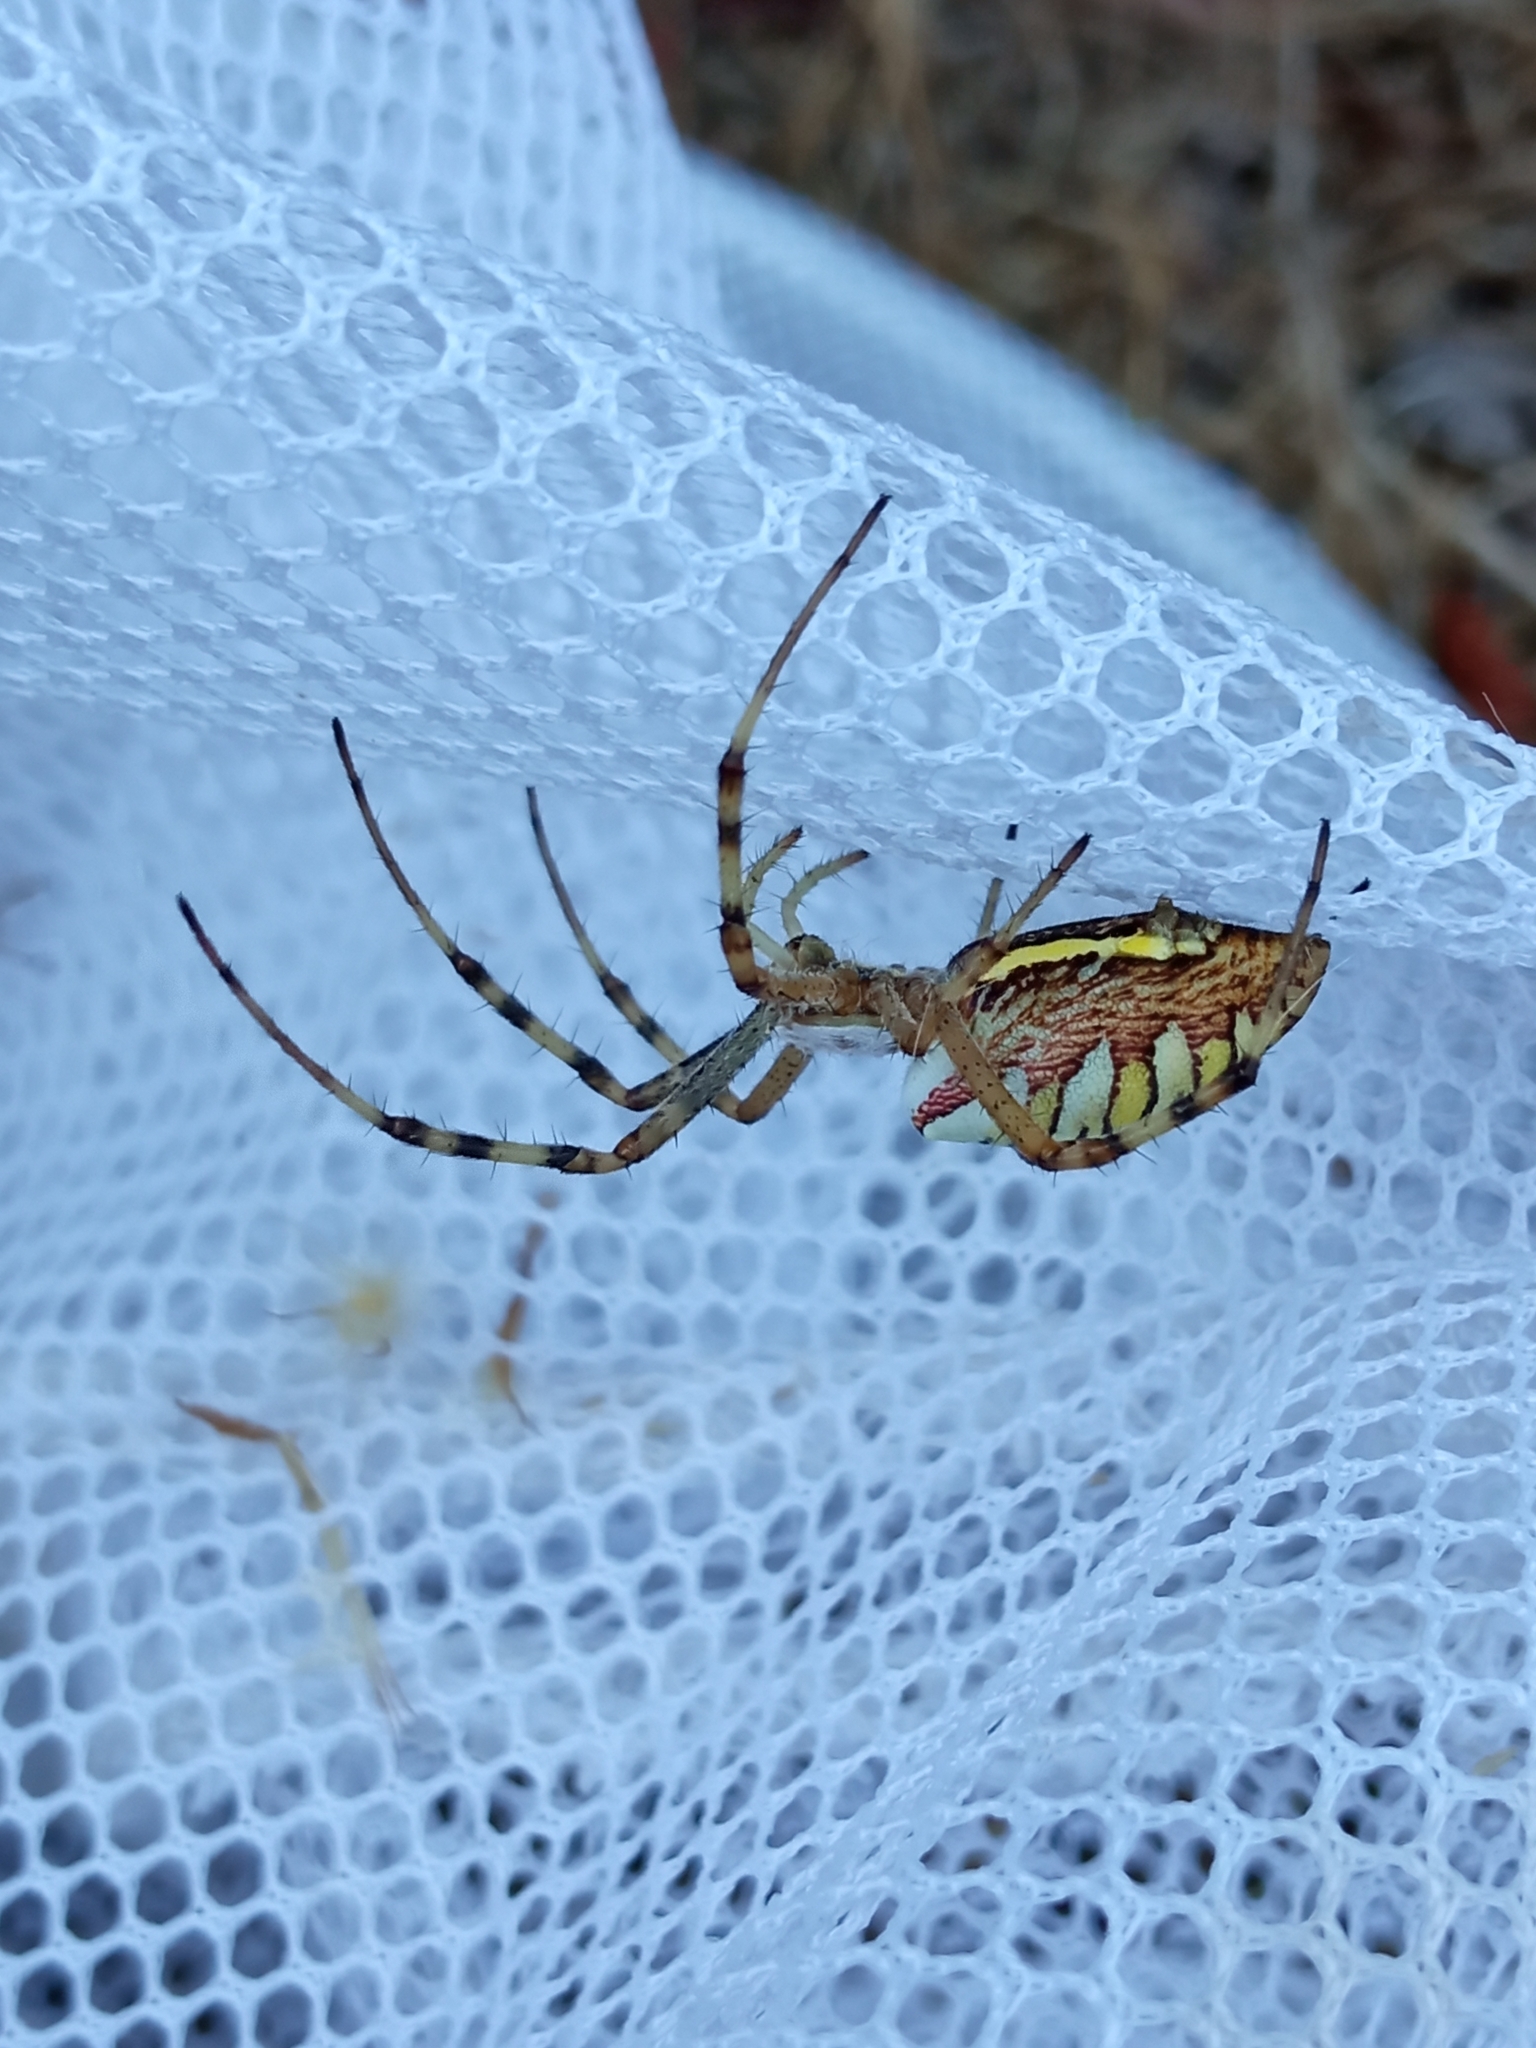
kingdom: Animalia
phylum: Arthropoda
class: Arachnida
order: Araneae
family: Araneidae
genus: Argiope
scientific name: Argiope bruennichi
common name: Wasp spider
